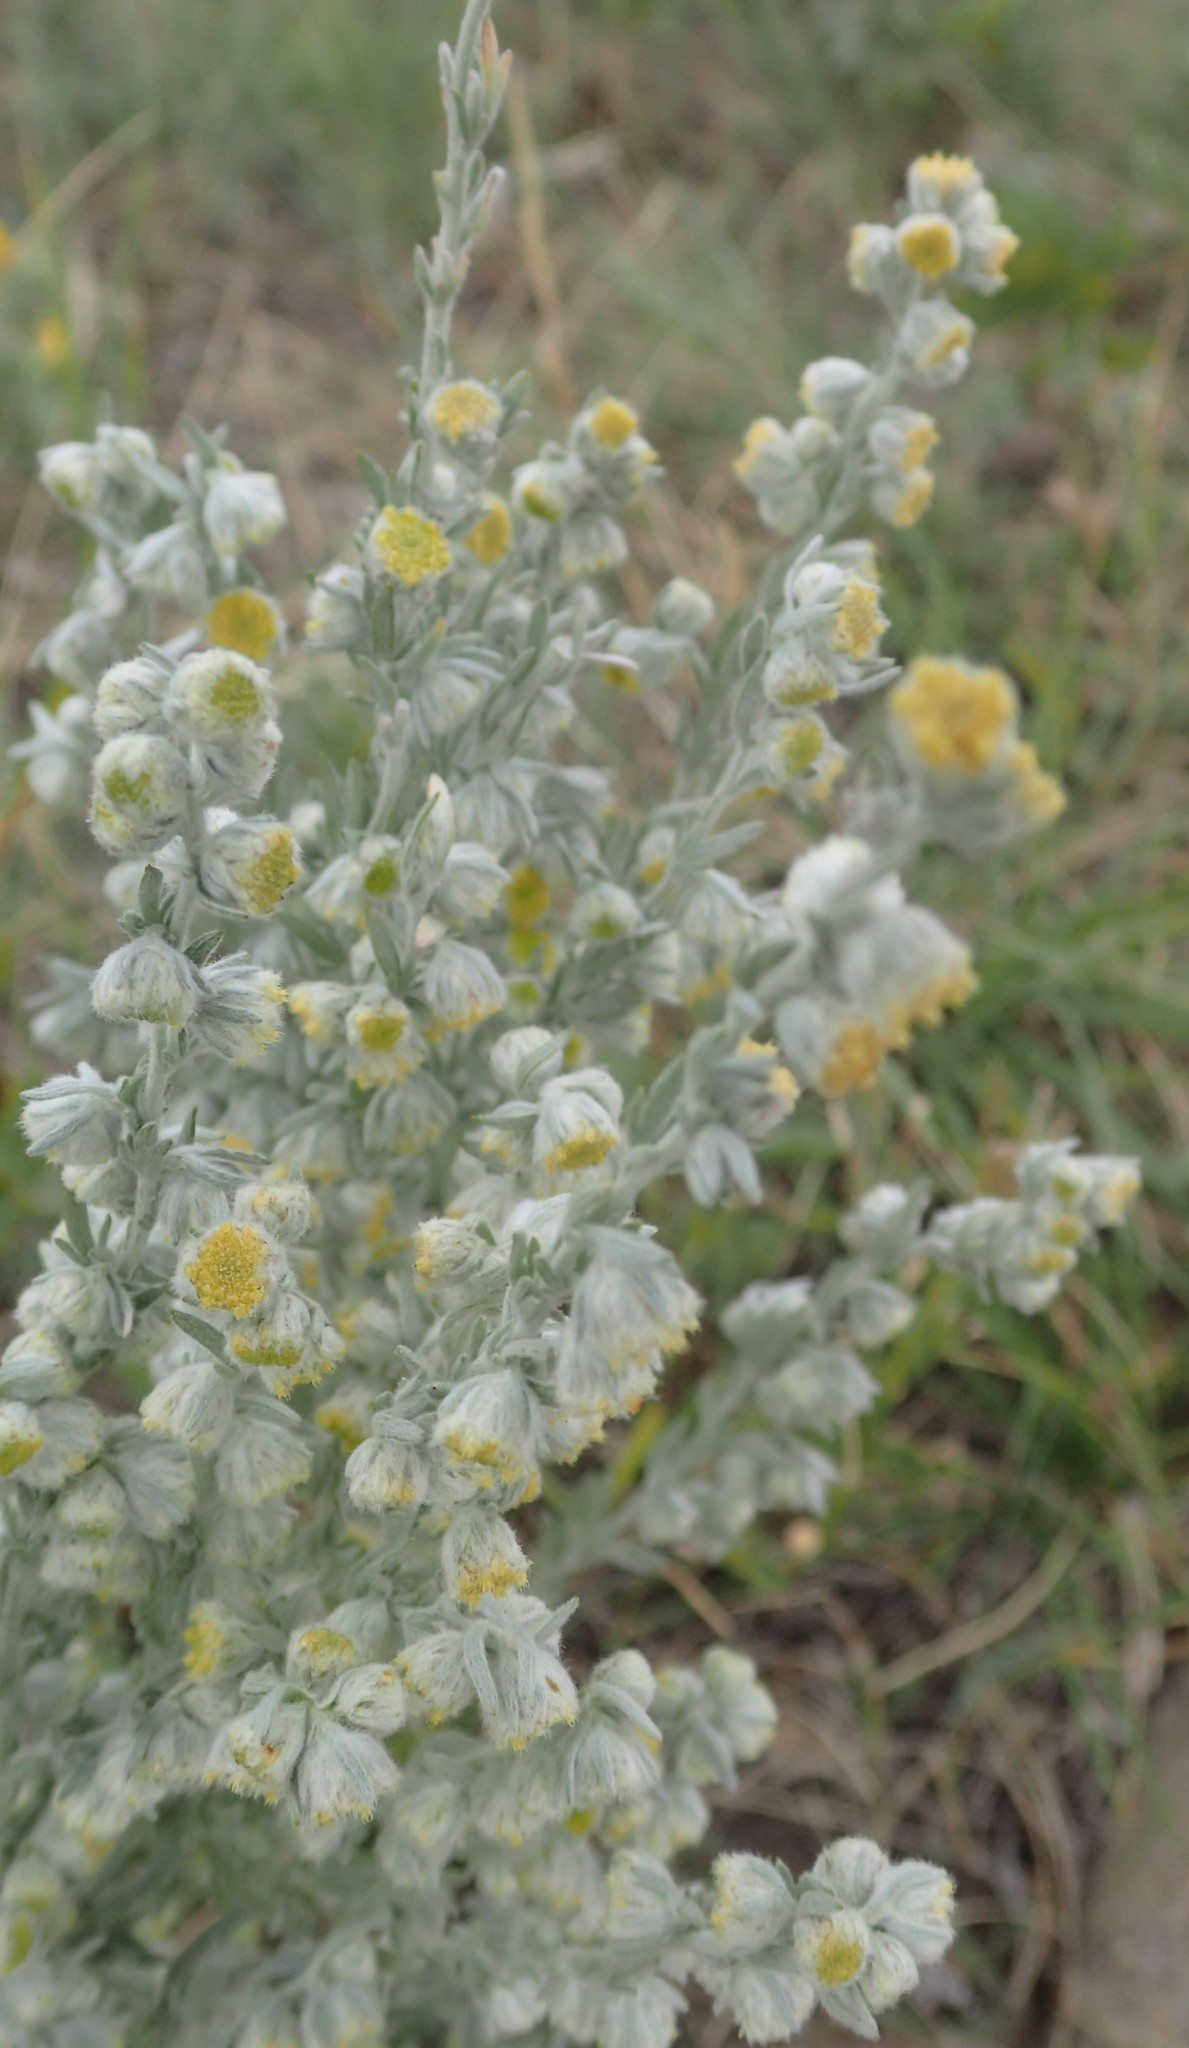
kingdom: Plantae
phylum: Tracheophyta
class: Magnoliopsida
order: Asterales
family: Asteraceae
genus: Artemisia
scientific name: Artemisia frigida
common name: Prairie sagewort
